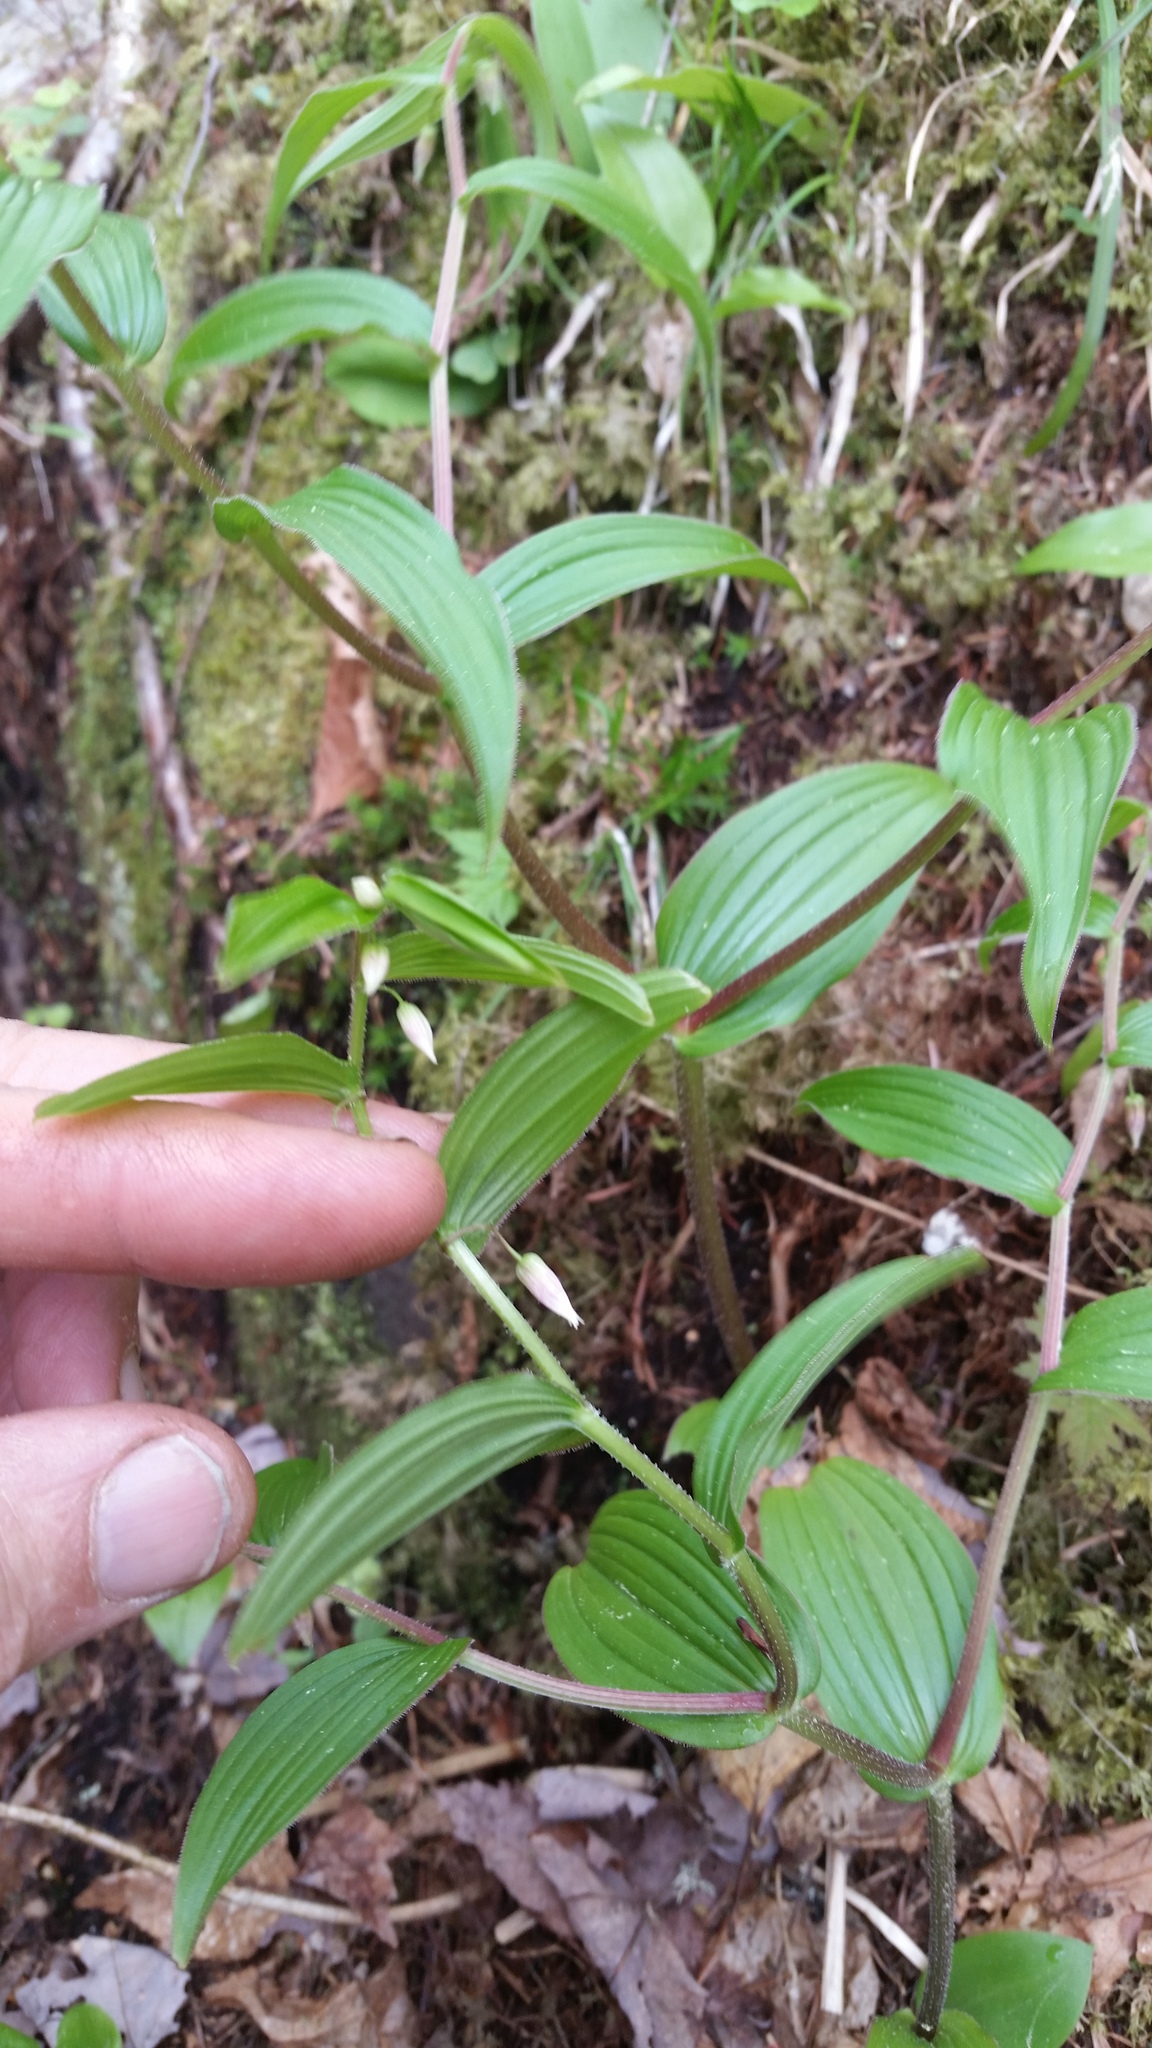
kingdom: Plantae
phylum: Tracheophyta
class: Liliopsida
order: Liliales
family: Liliaceae
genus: Streptopus
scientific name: Streptopus lanceolatus
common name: Rose mandarin
